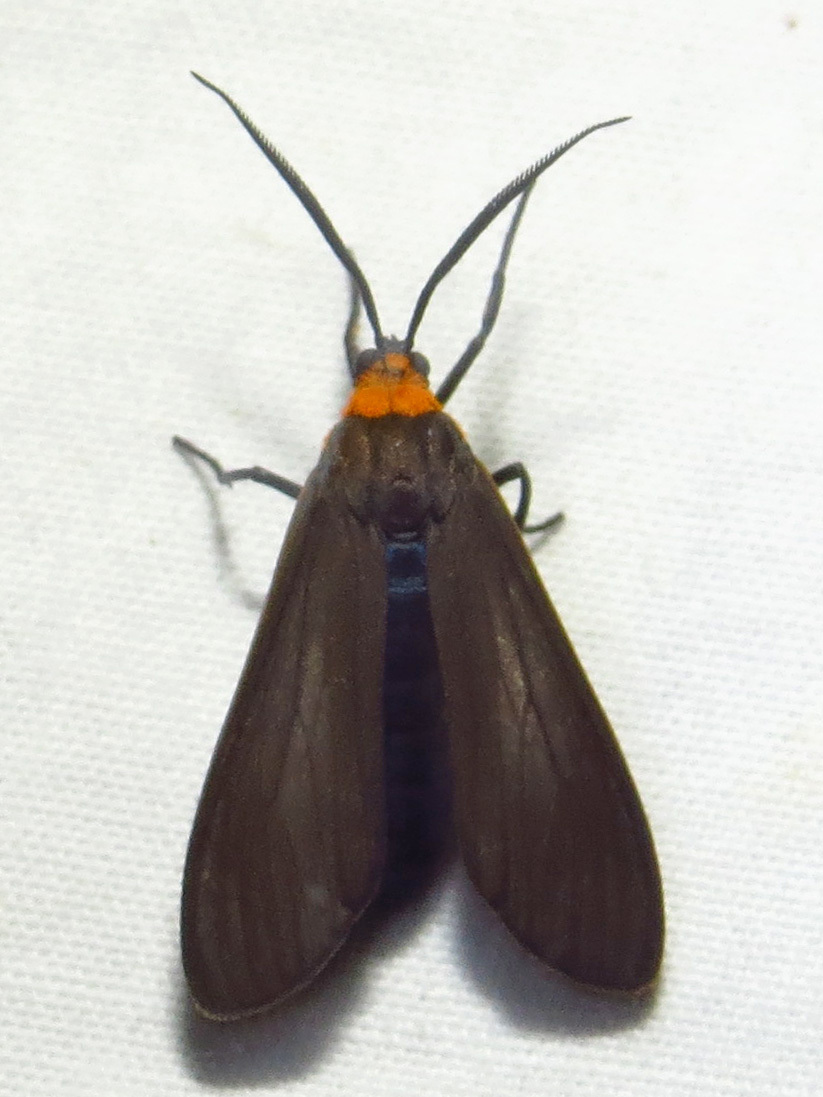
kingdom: Animalia
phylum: Arthropoda
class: Insecta
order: Lepidoptera
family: Erebidae
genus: Cisseps
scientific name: Cisseps fulvicollis
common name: Yellow-collared scape moth
